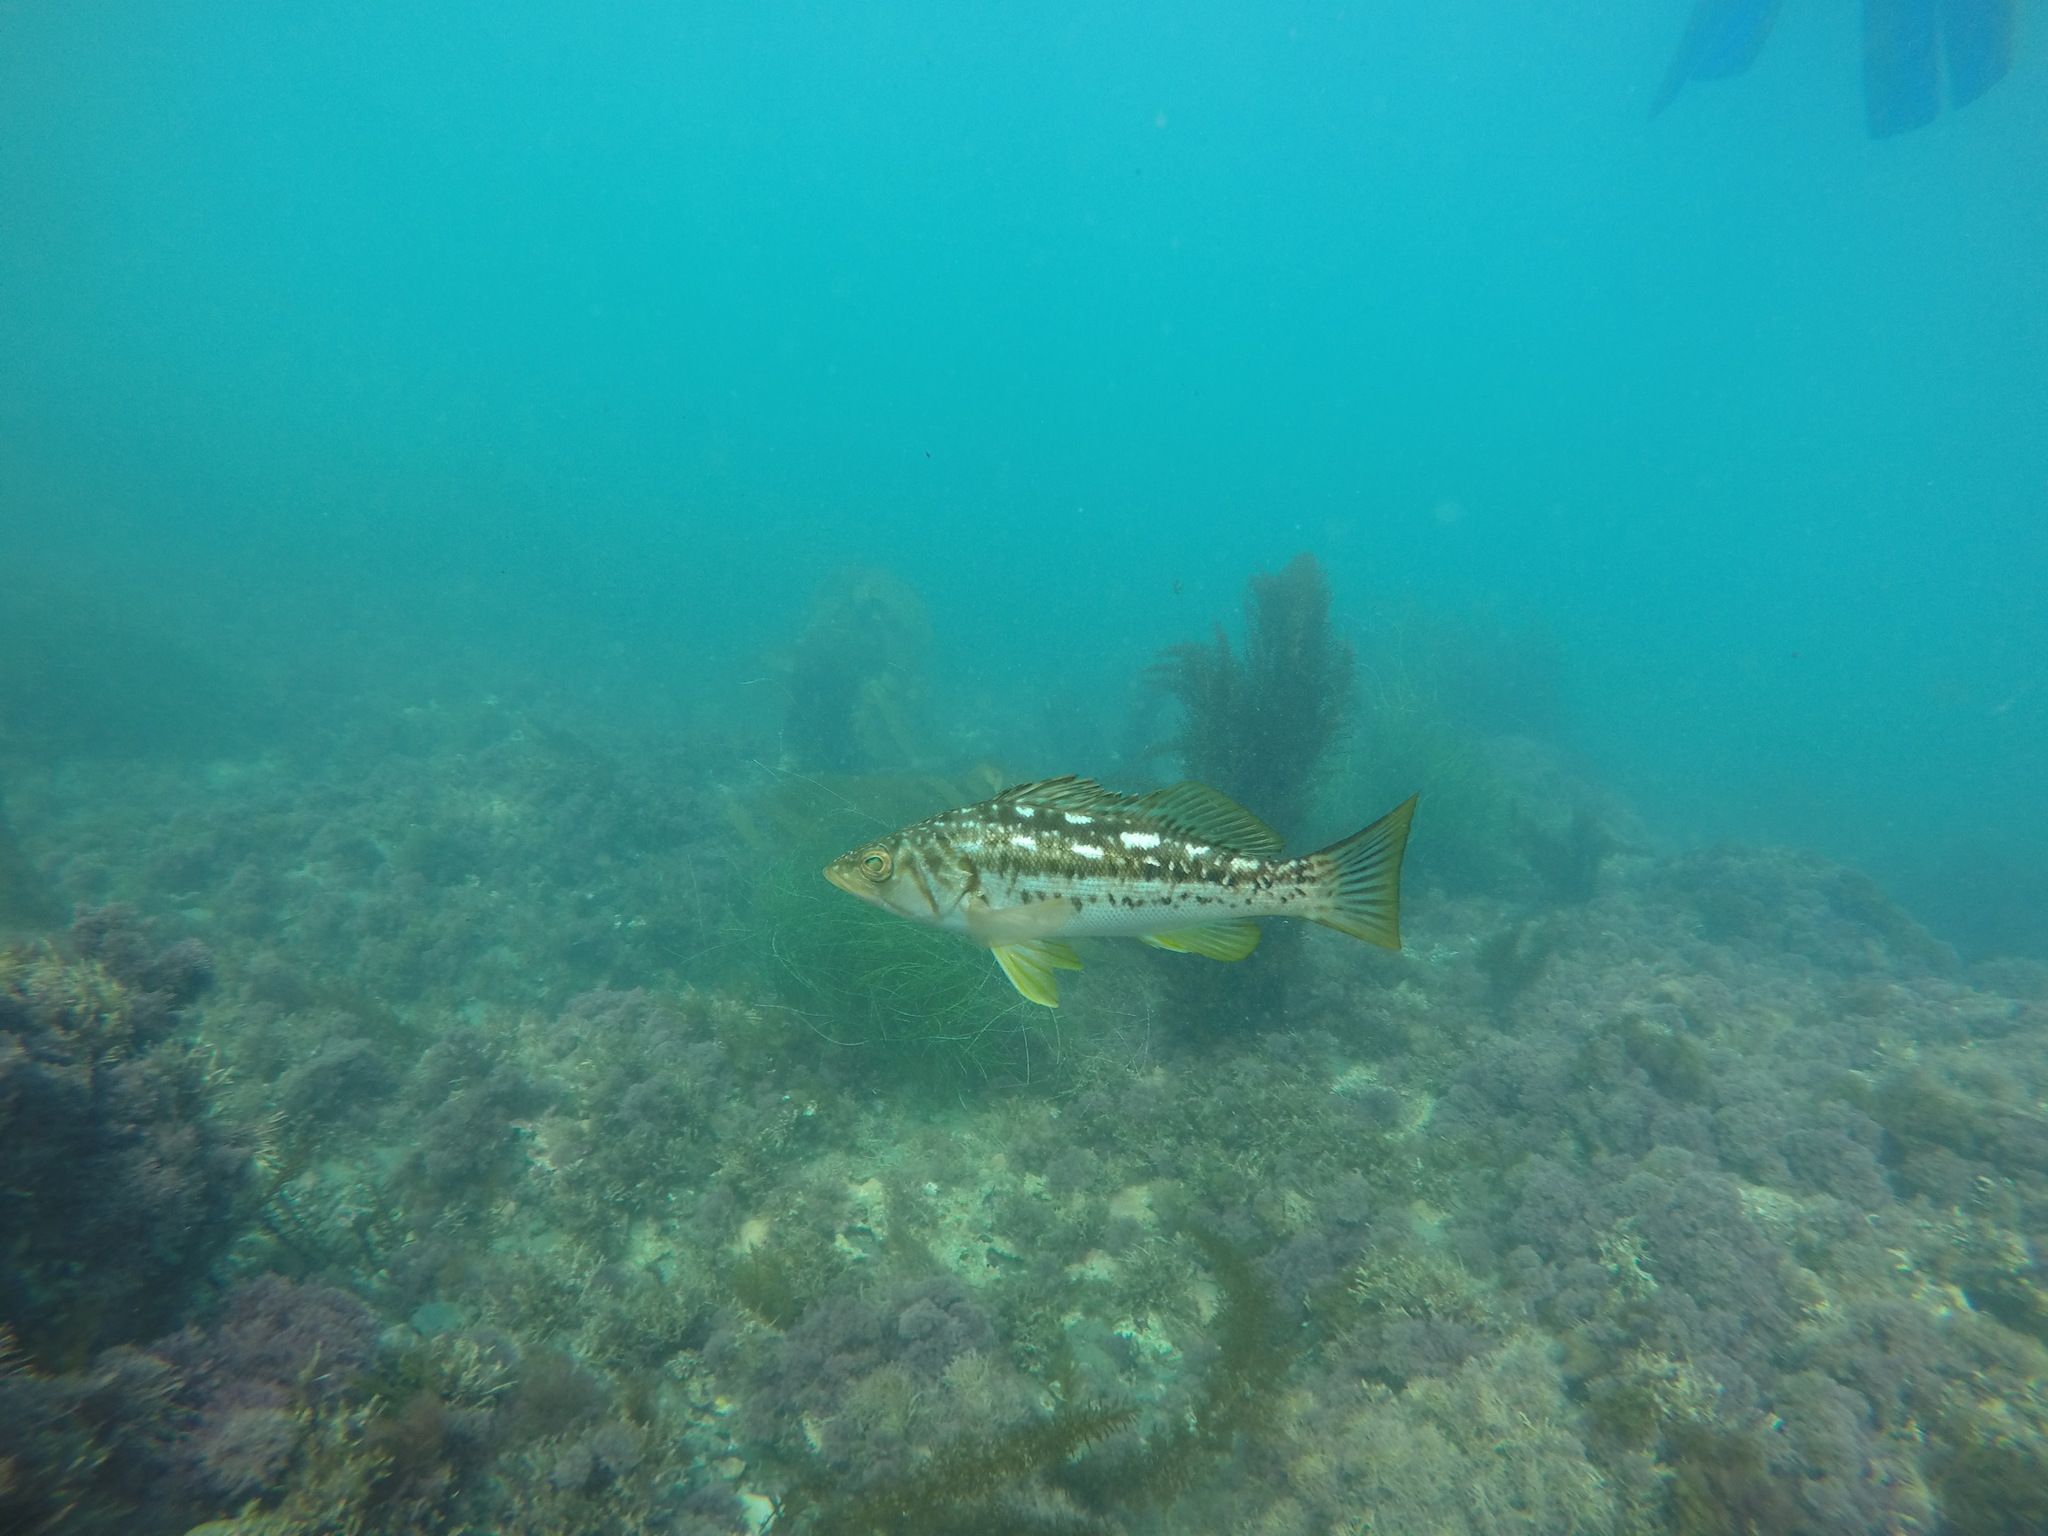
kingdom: Animalia
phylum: Chordata
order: Perciformes
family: Serranidae
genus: Paralabrax
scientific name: Paralabrax clathratus
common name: Kelp bass
